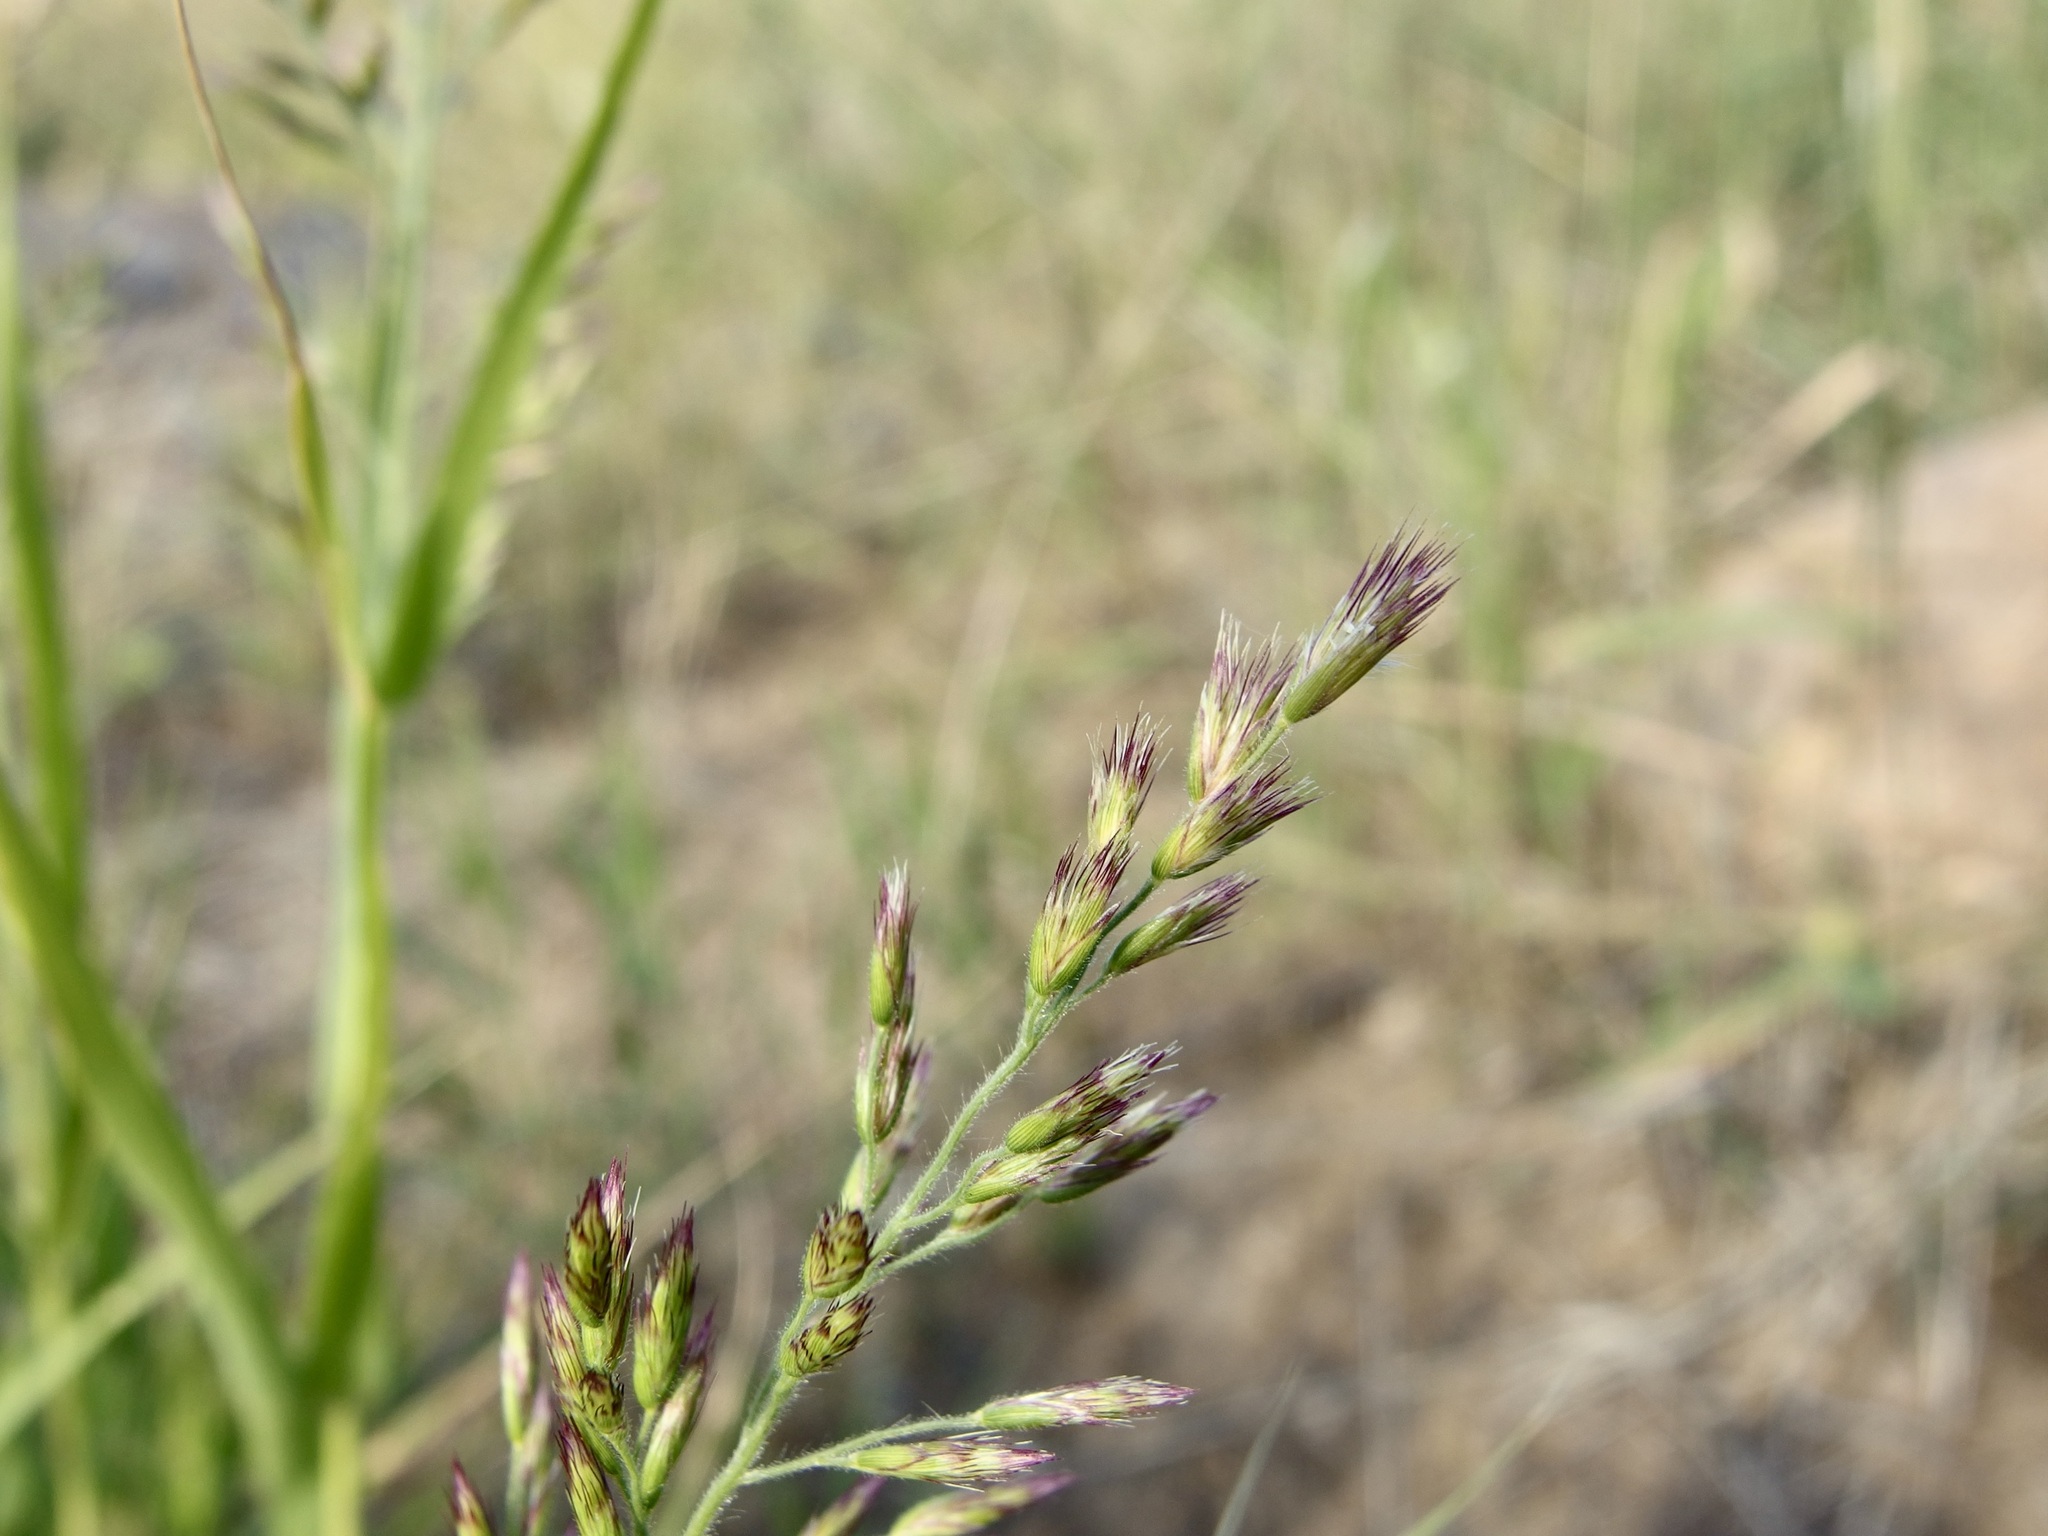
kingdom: Plantae
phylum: Tracheophyta
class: Liliopsida
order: Poales
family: Poaceae
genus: Cottea
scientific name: Cottea pappophoroides
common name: Cotta grass
